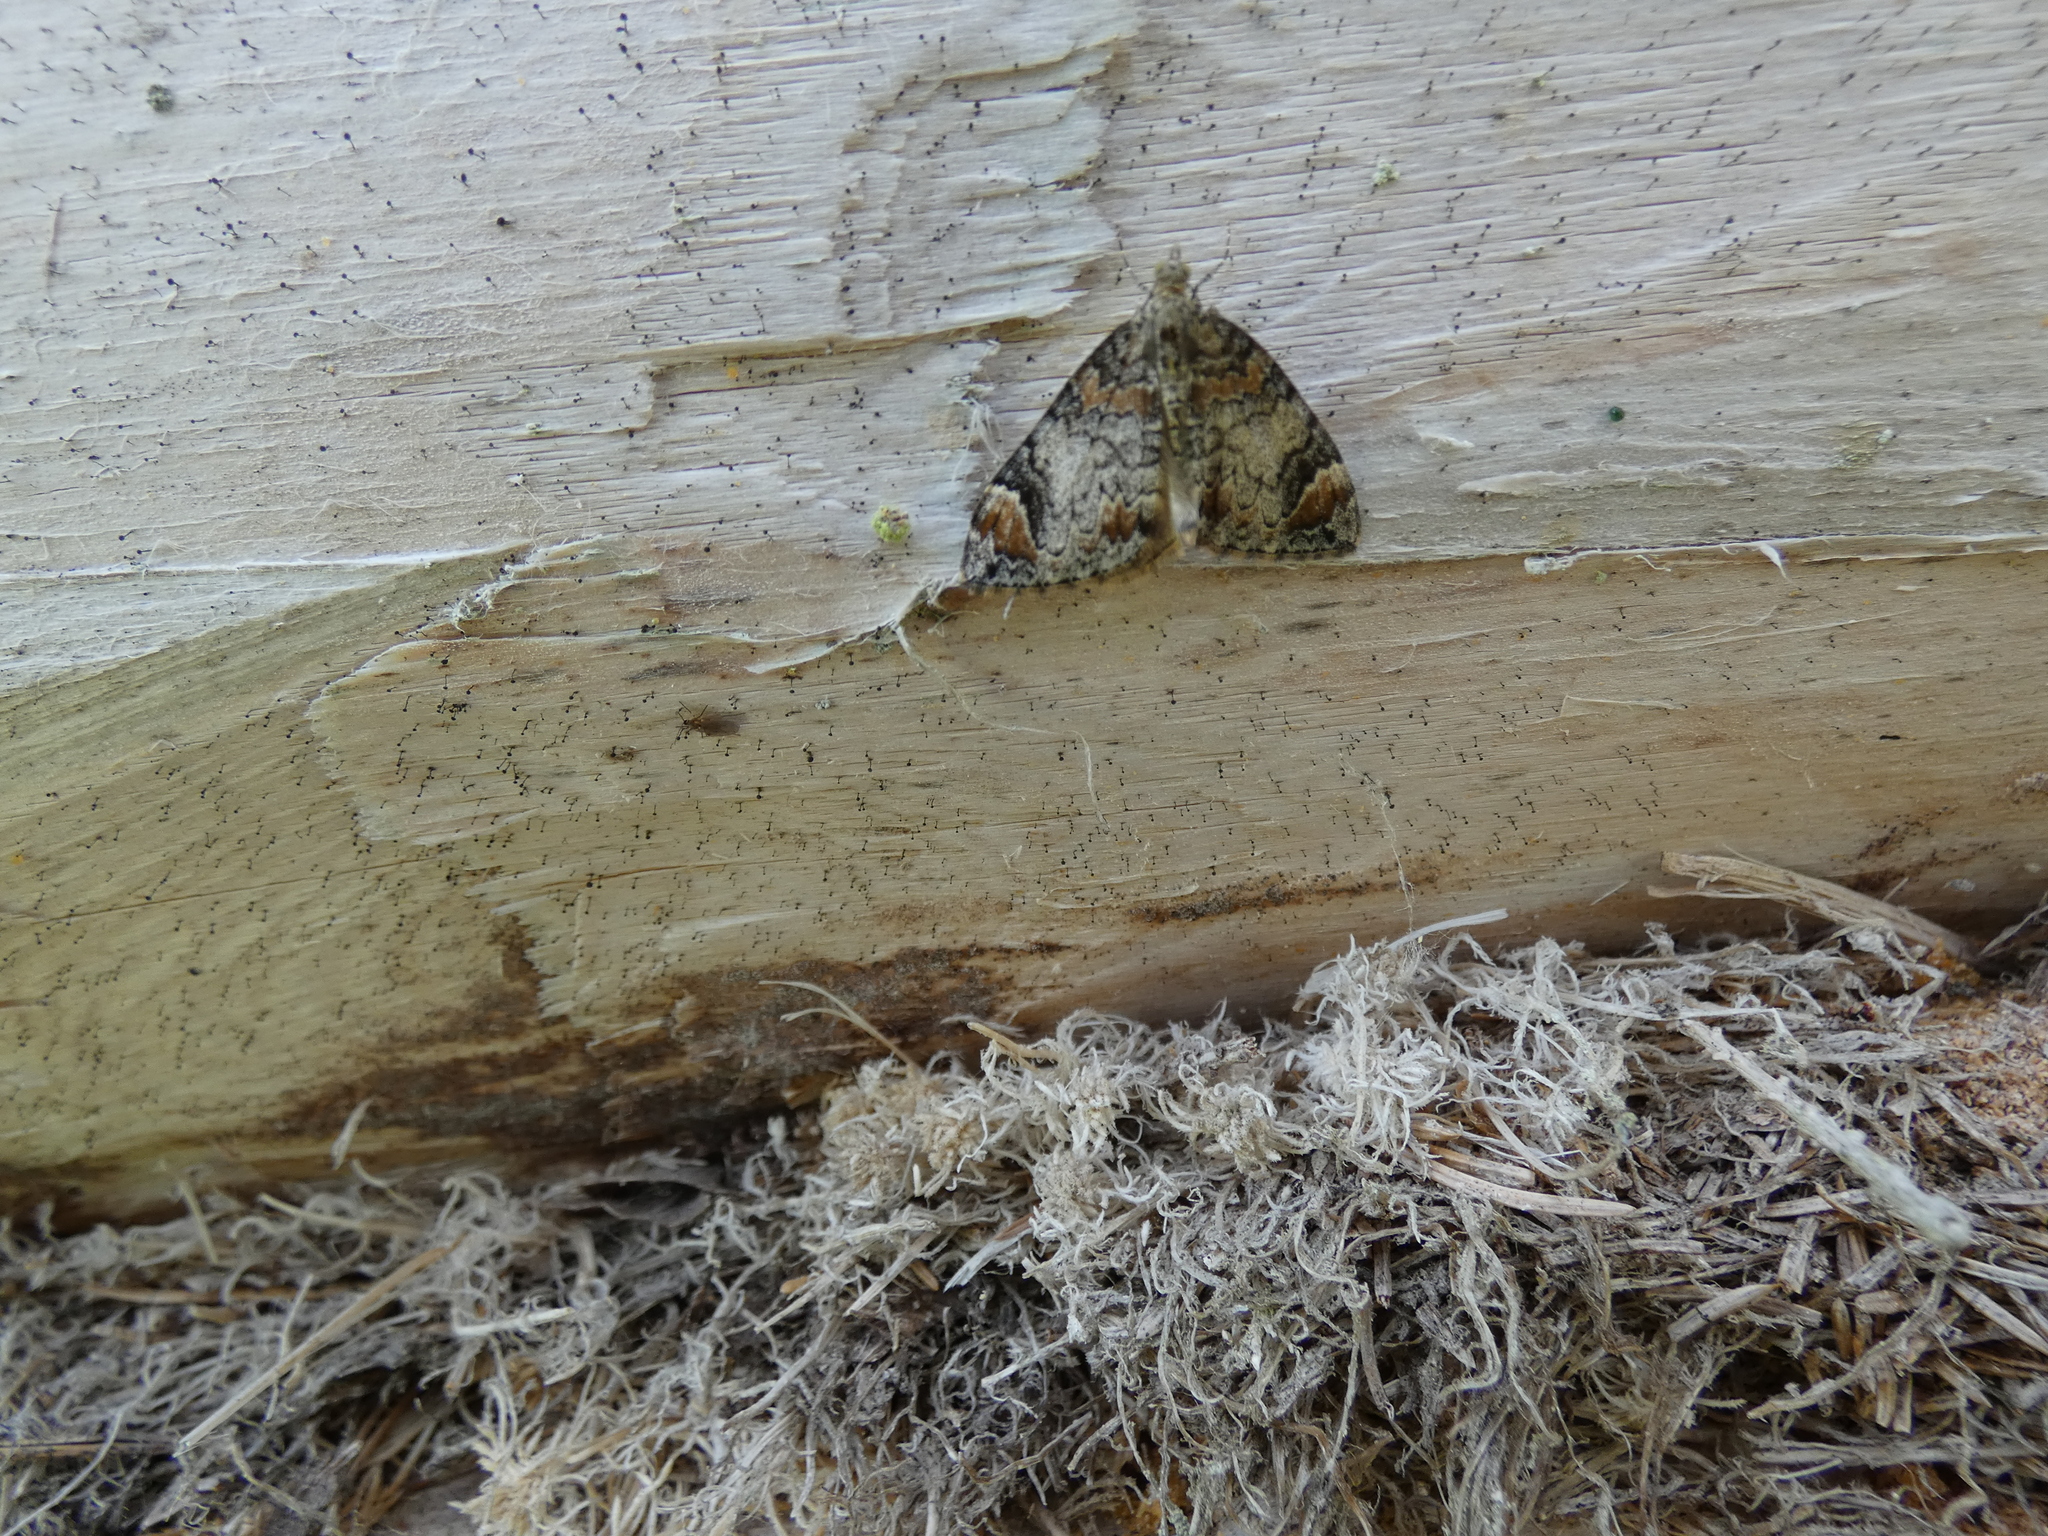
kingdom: Animalia
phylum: Arthropoda
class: Insecta
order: Lepidoptera
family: Geometridae
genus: Dysstroma
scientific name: Dysstroma citrata
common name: Dark marbled carpet
